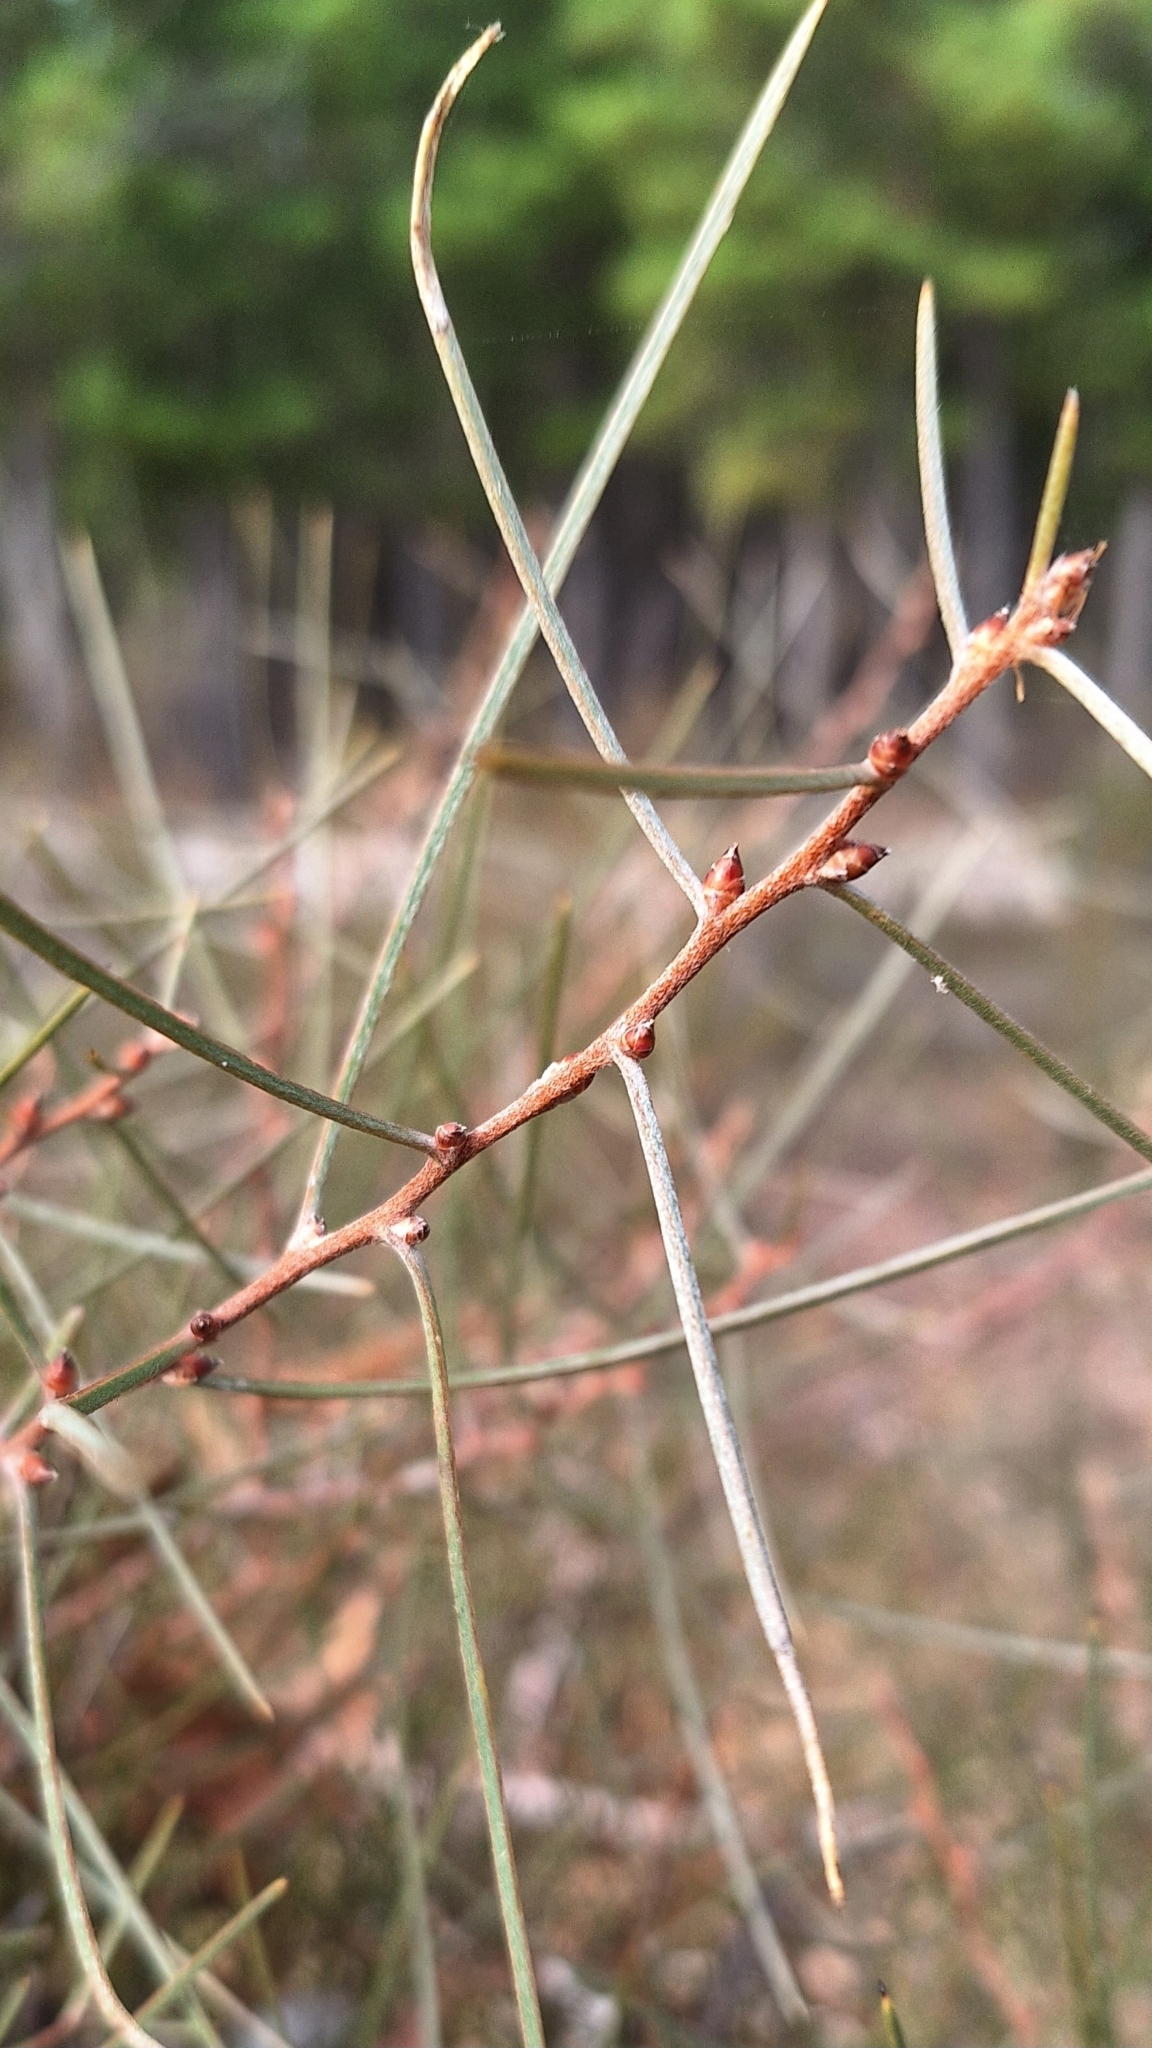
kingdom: Plantae
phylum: Tracheophyta
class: Magnoliopsida
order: Proteales
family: Proteaceae
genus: Hakea
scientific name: Hakea carinata
